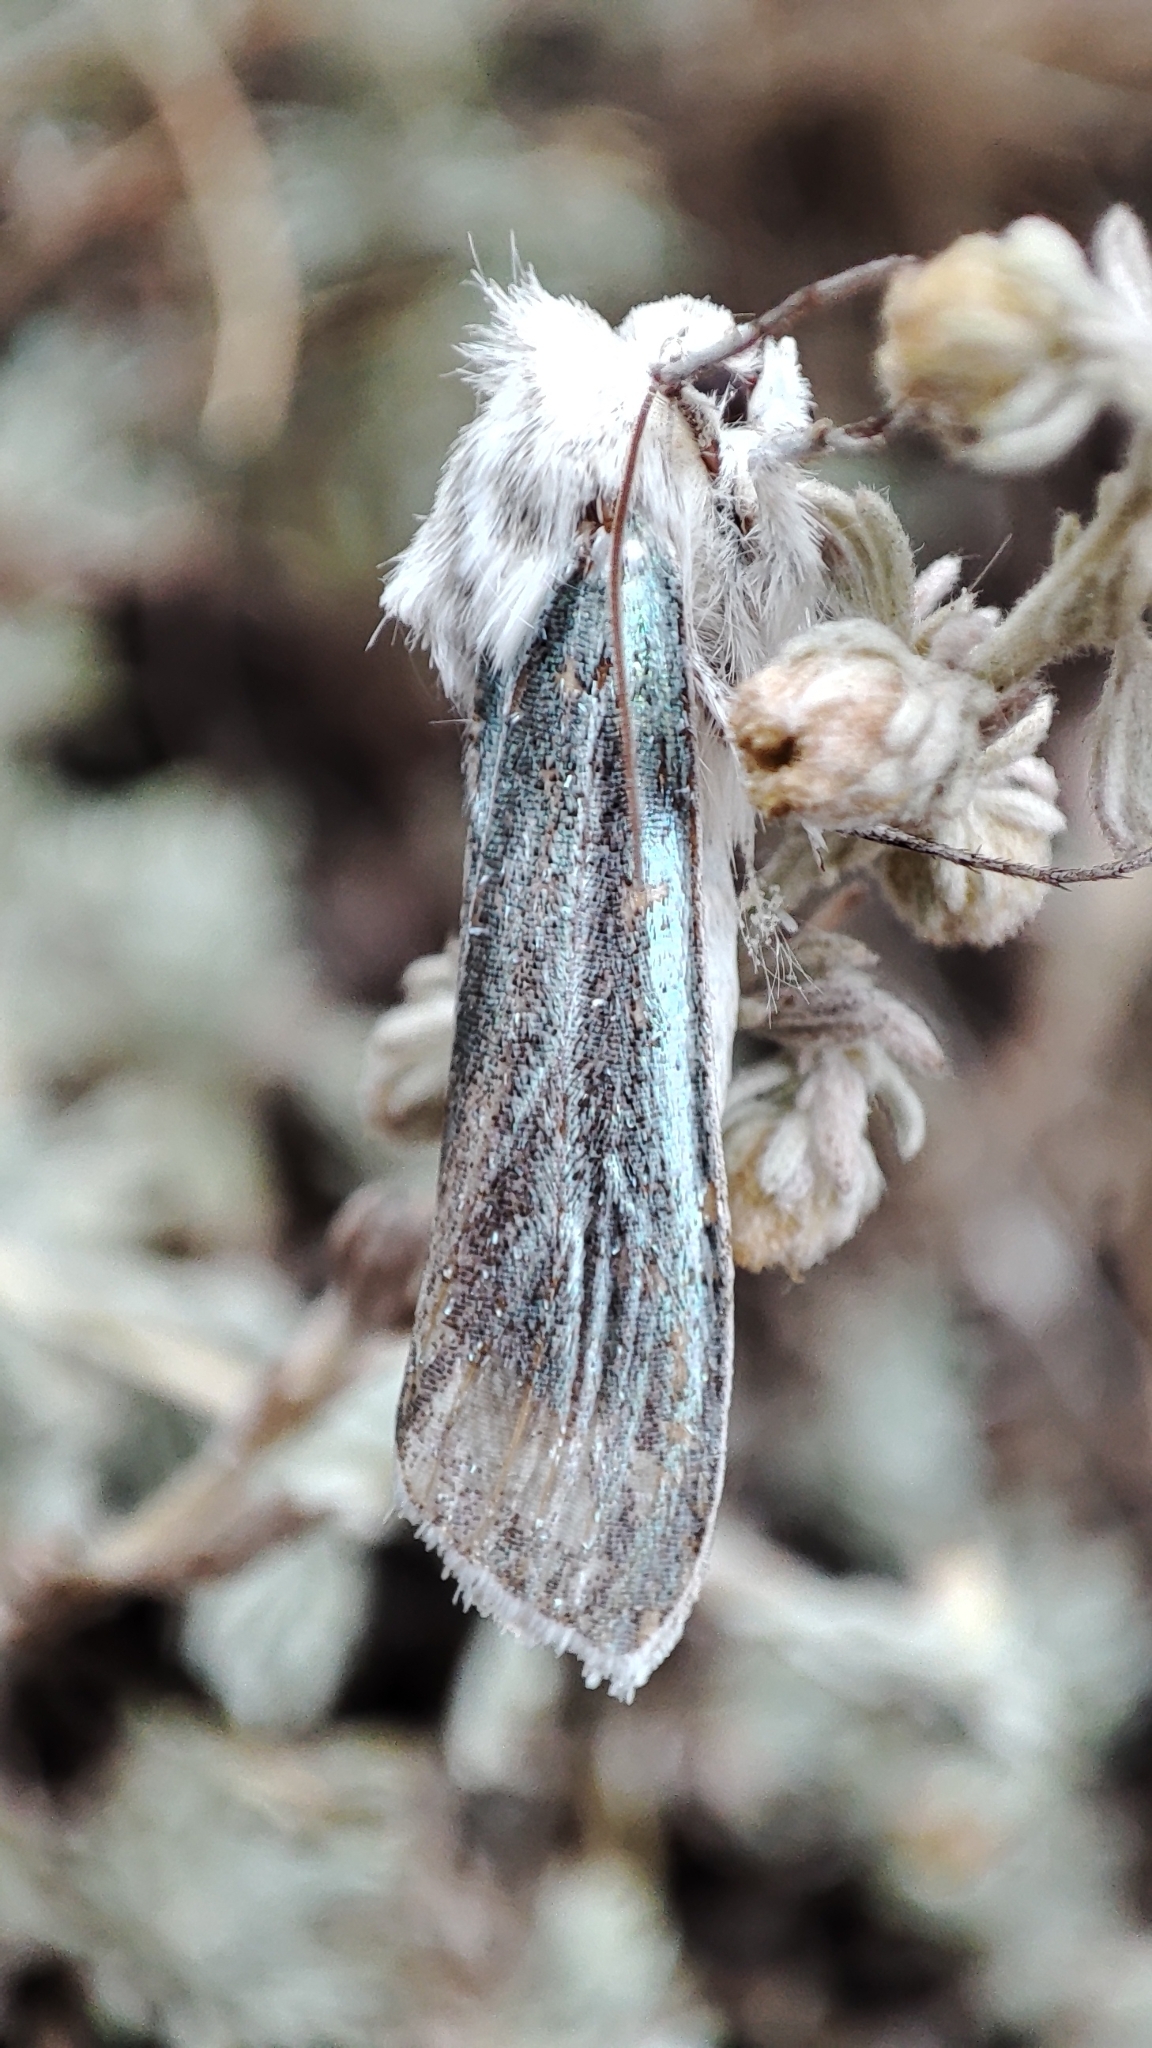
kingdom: Animalia
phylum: Arthropoda
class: Insecta
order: Lepidoptera
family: Noctuidae
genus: Cucullia
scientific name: Cucullia splendida
